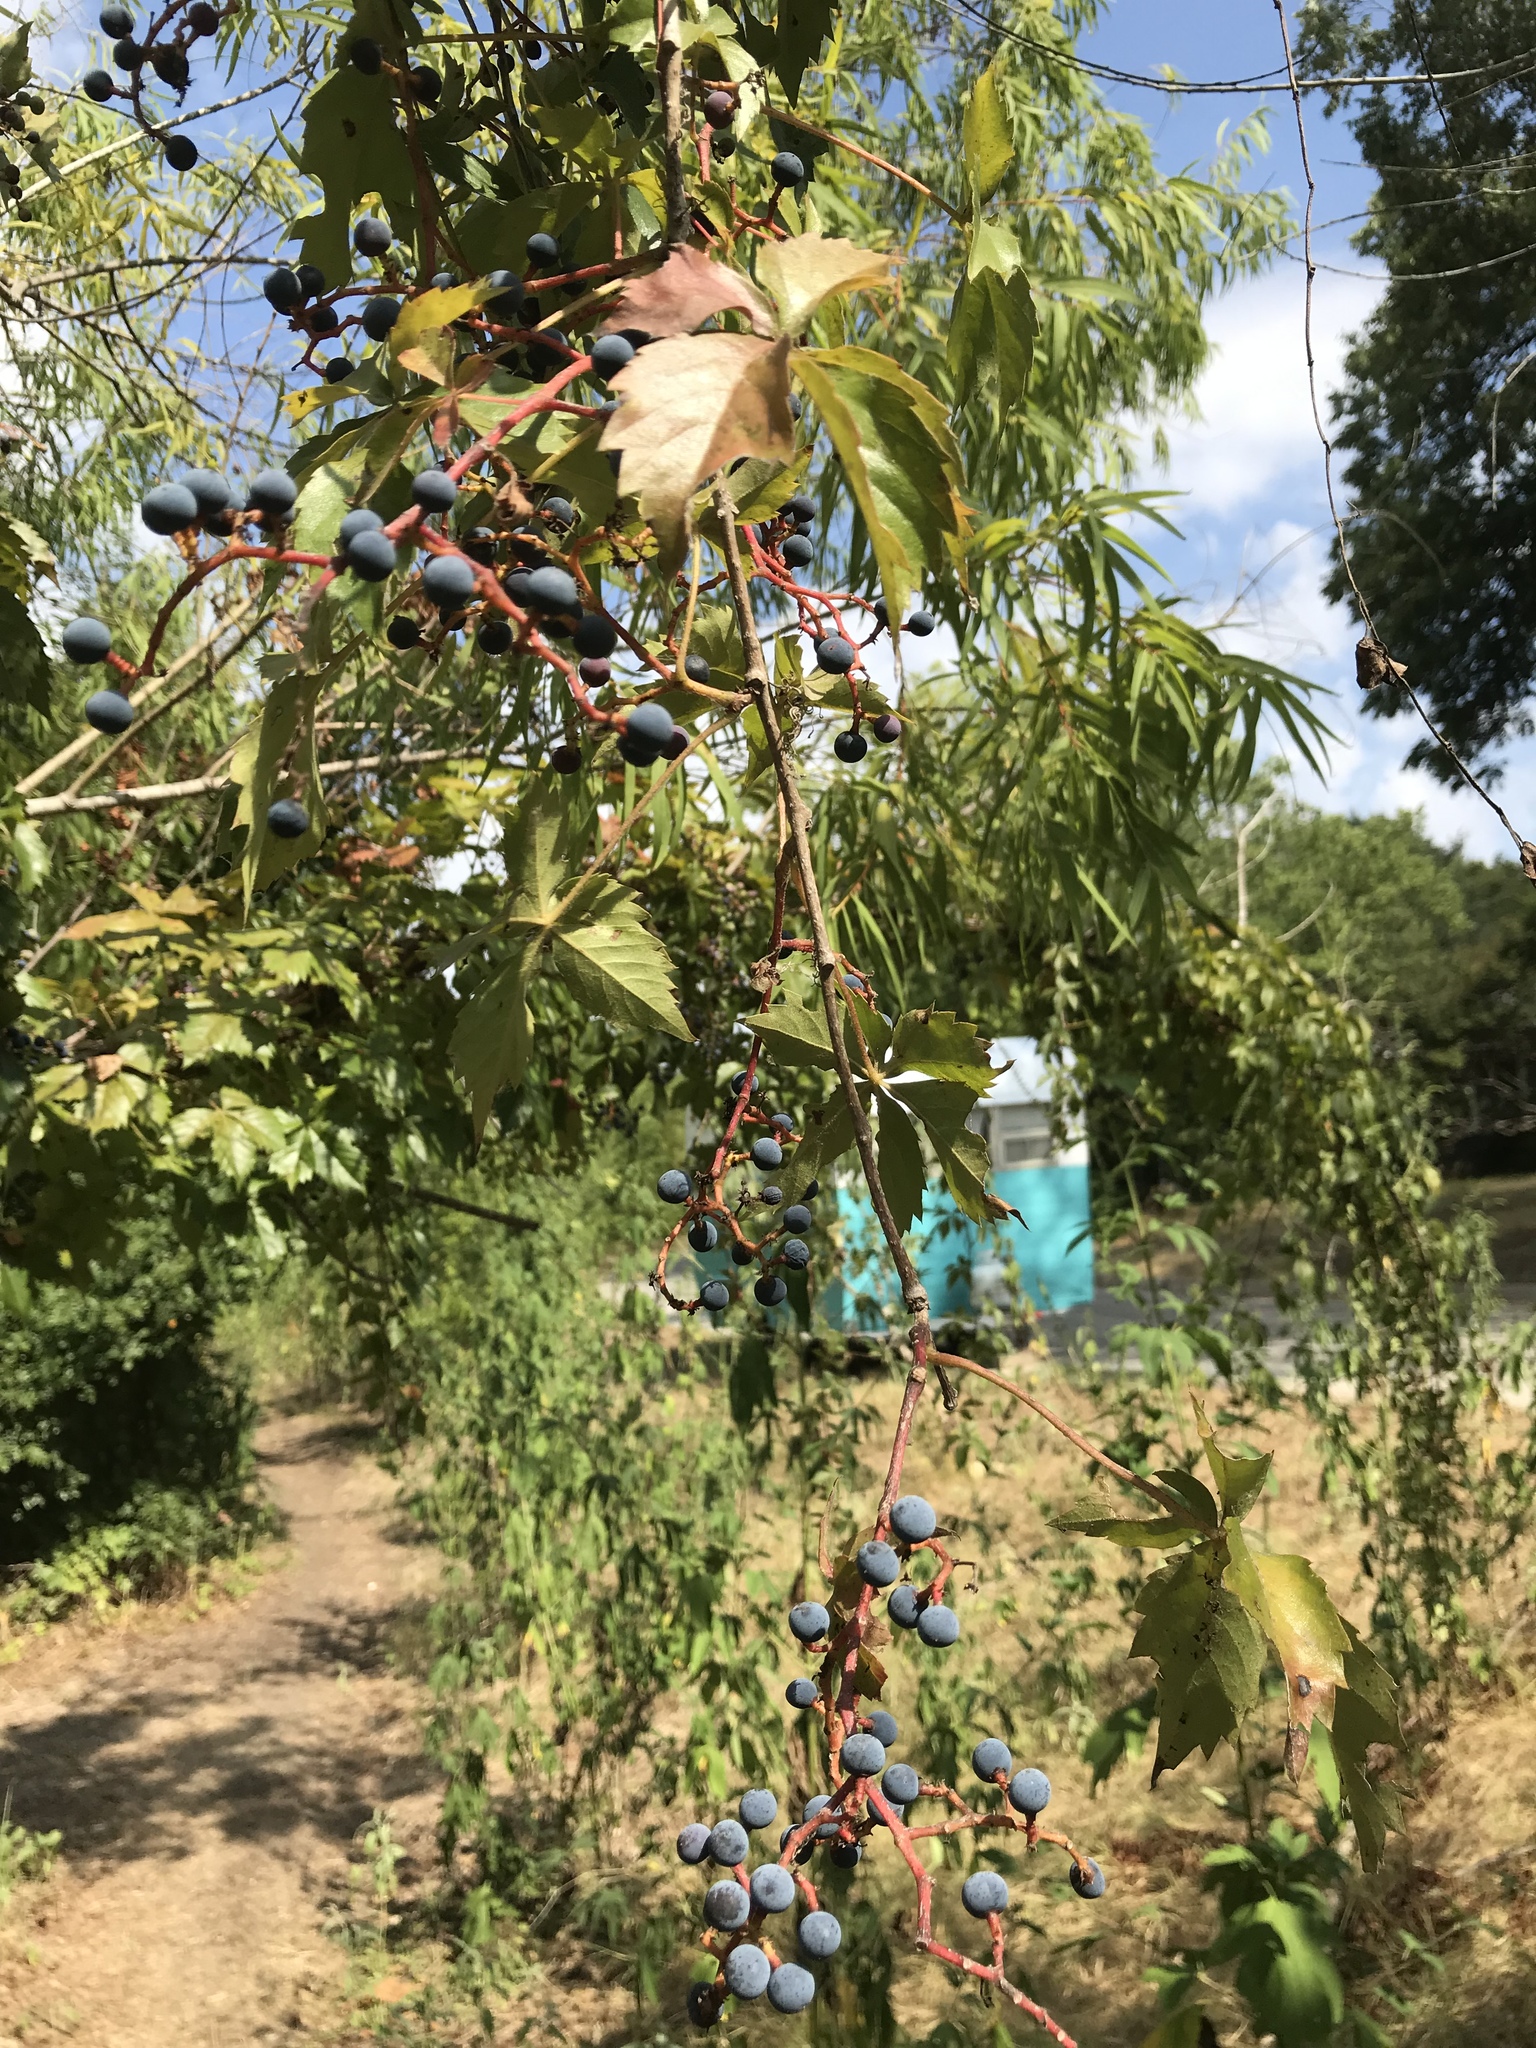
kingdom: Plantae
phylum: Tracheophyta
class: Magnoliopsida
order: Vitales
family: Vitaceae
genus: Parthenocissus
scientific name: Parthenocissus quinquefolia
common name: Virginia-creeper
